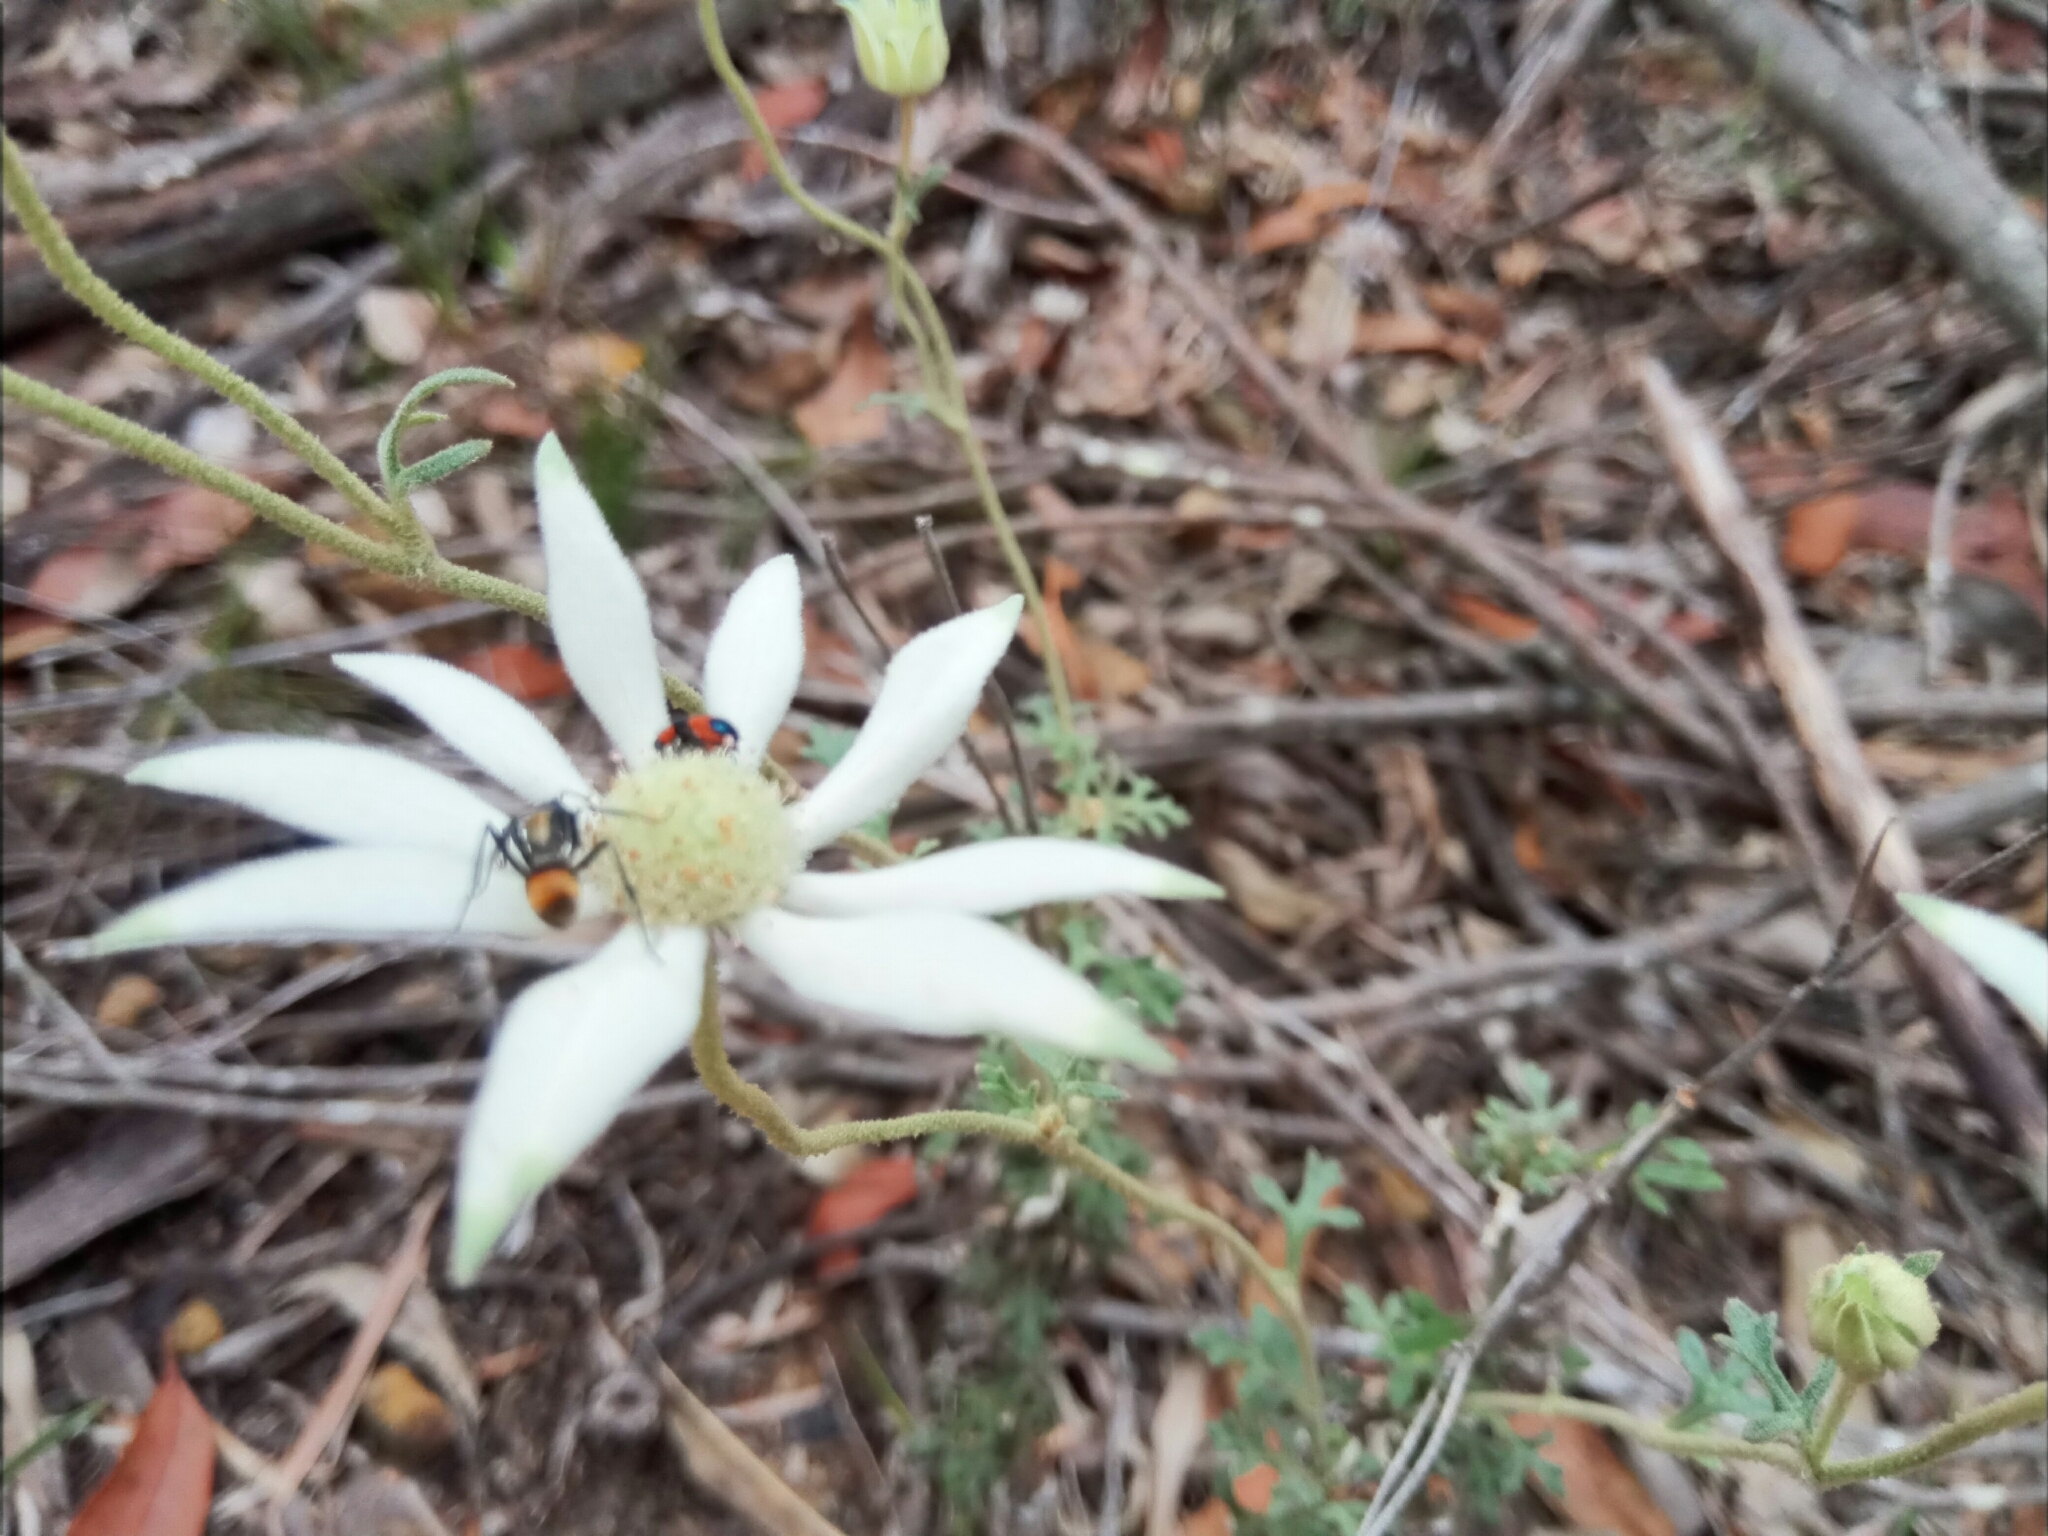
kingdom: Animalia
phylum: Arthropoda
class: Insecta
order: Hymenoptera
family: Formicidae
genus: Polyrhachis
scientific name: Polyrhachis ammon
